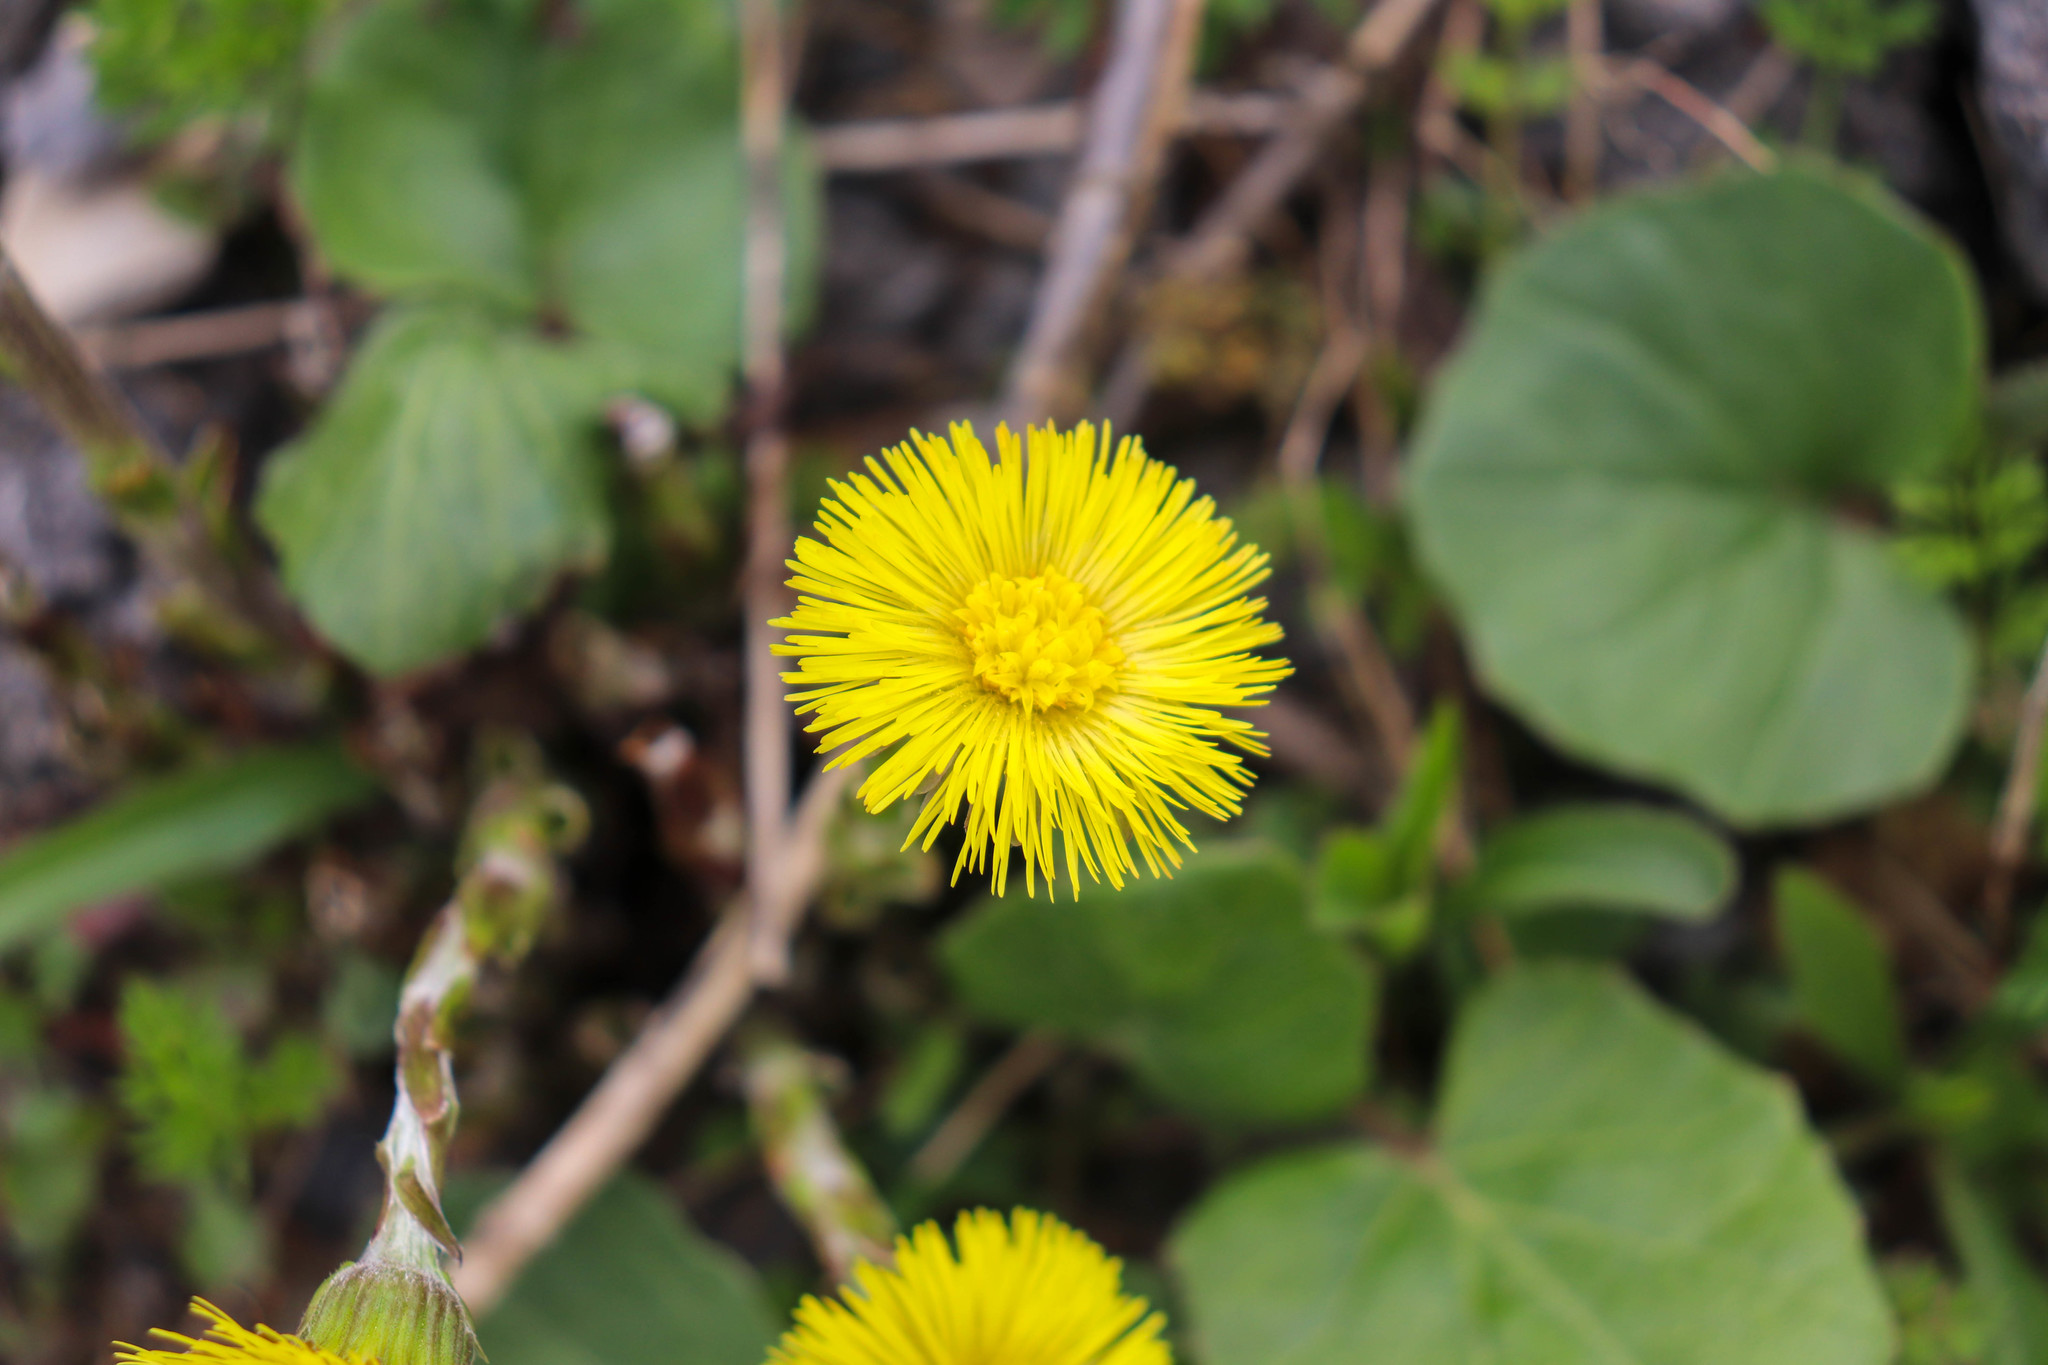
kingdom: Plantae
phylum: Tracheophyta
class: Magnoliopsida
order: Asterales
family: Asteraceae
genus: Tussilago
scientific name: Tussilago farfara
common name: Coltsfoot
